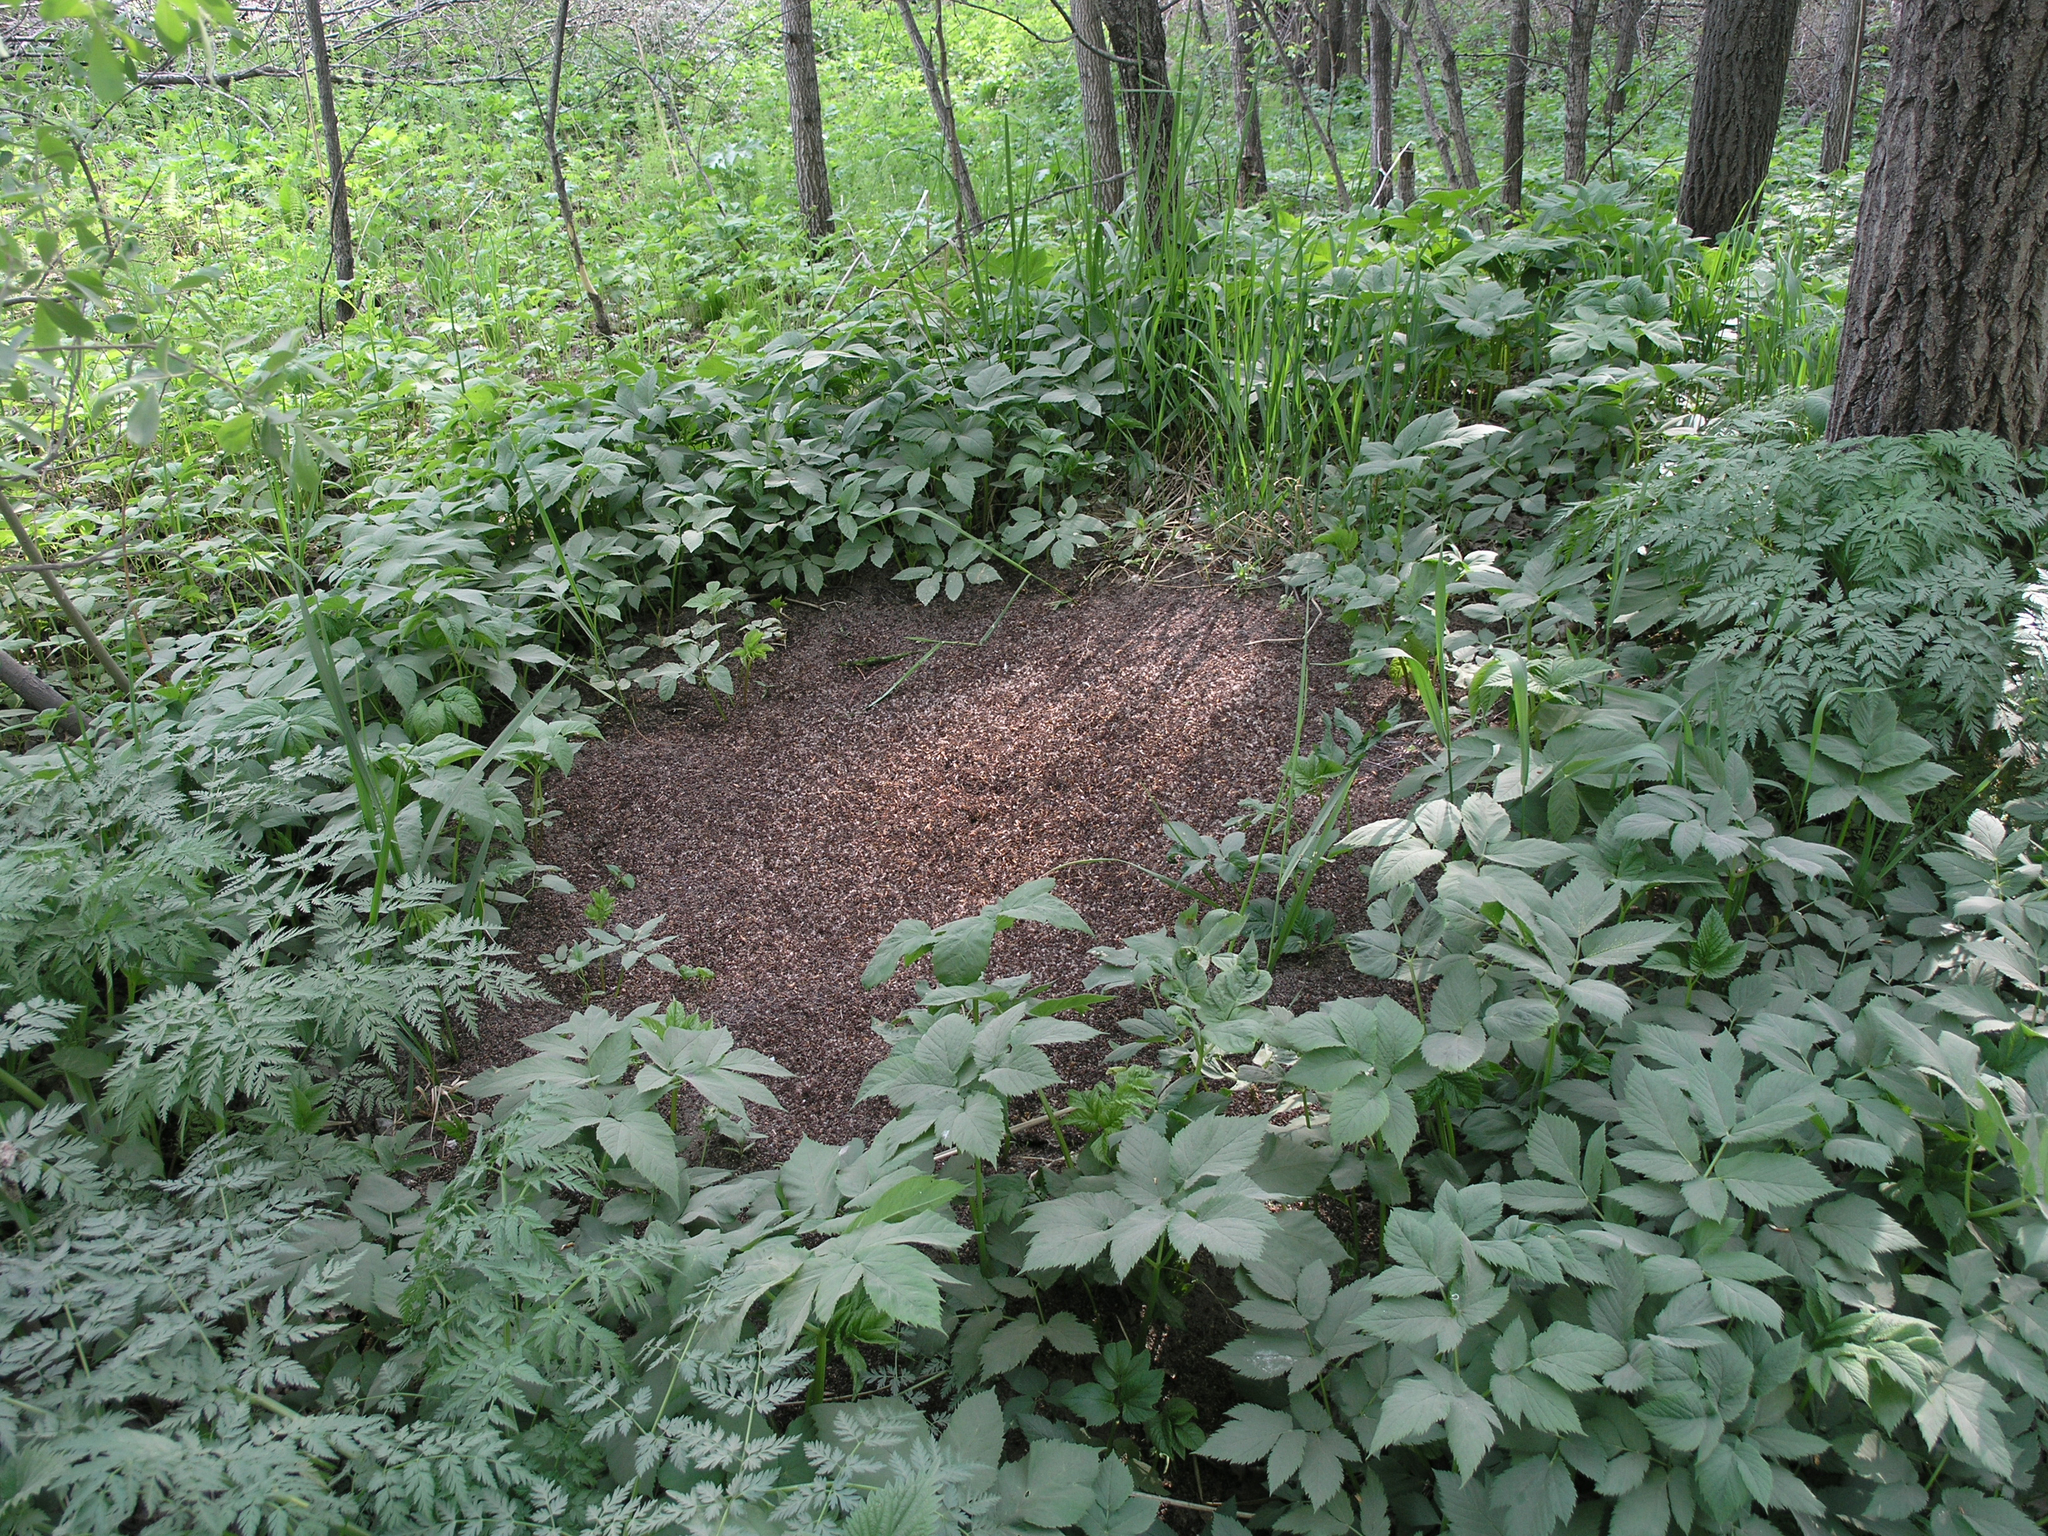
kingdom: Plantae
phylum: Tracheophyta
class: Magnoliopsida
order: Apiales
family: Apiaceae
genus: Aegopodium
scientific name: Aegopodium podagraria
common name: Ground-elder
